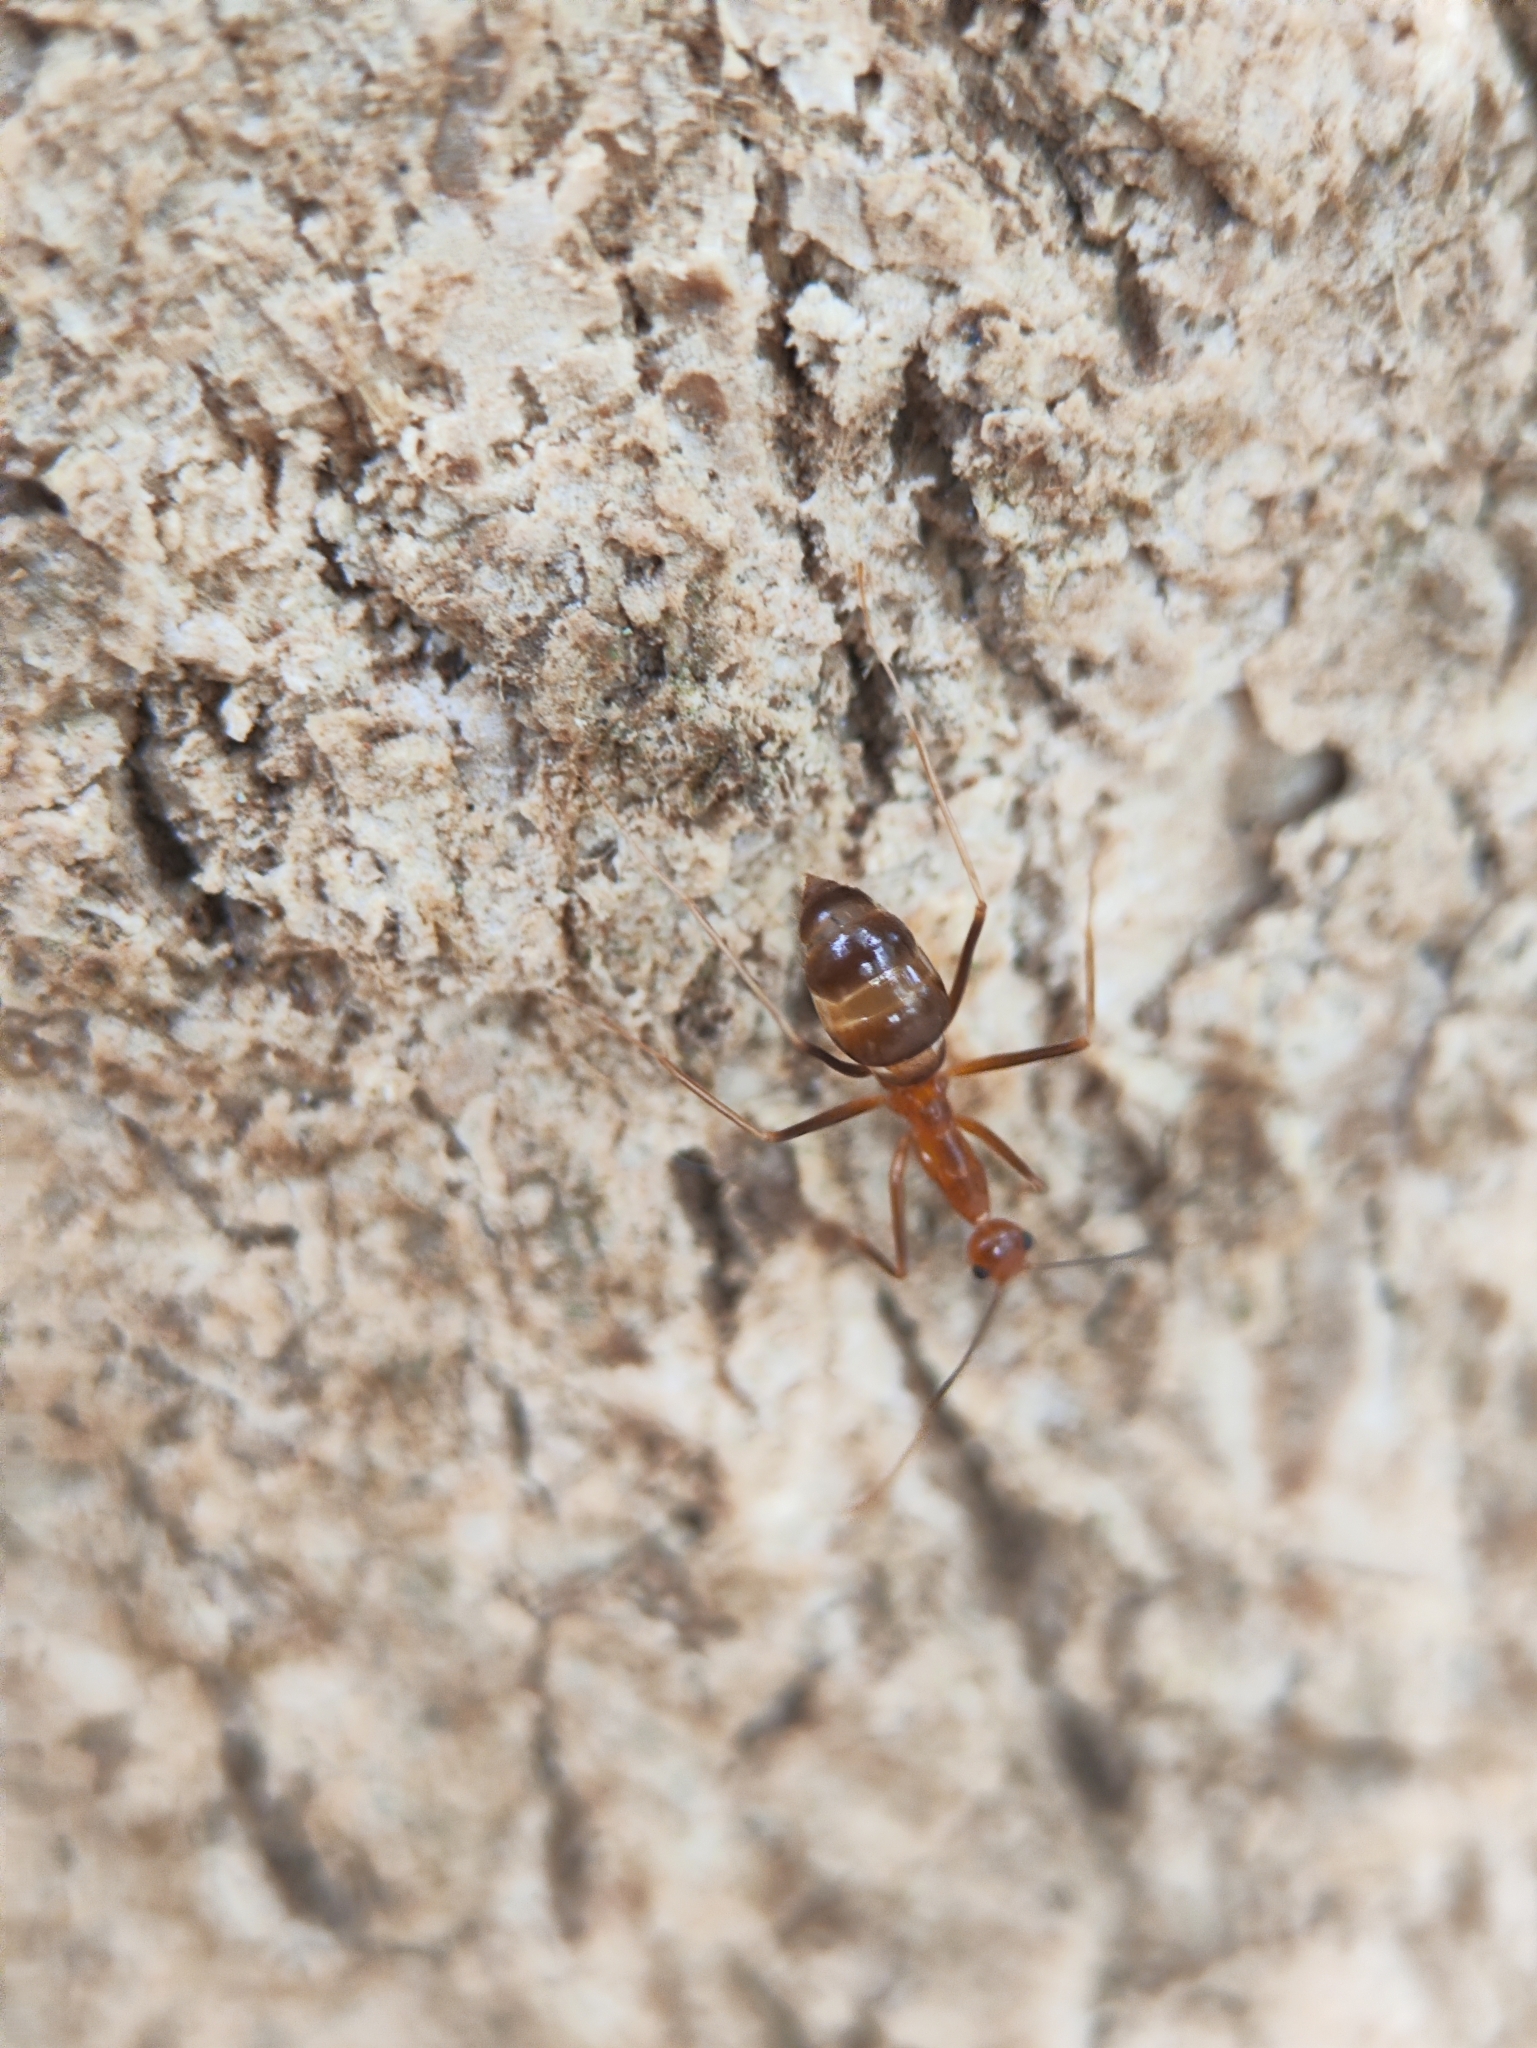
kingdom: Animalia
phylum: Arthropoda
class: Insecta
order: Hymenoptera
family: Formicidae
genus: Anoplolepis
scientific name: Anoplolepis gracilipes
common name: Ant
